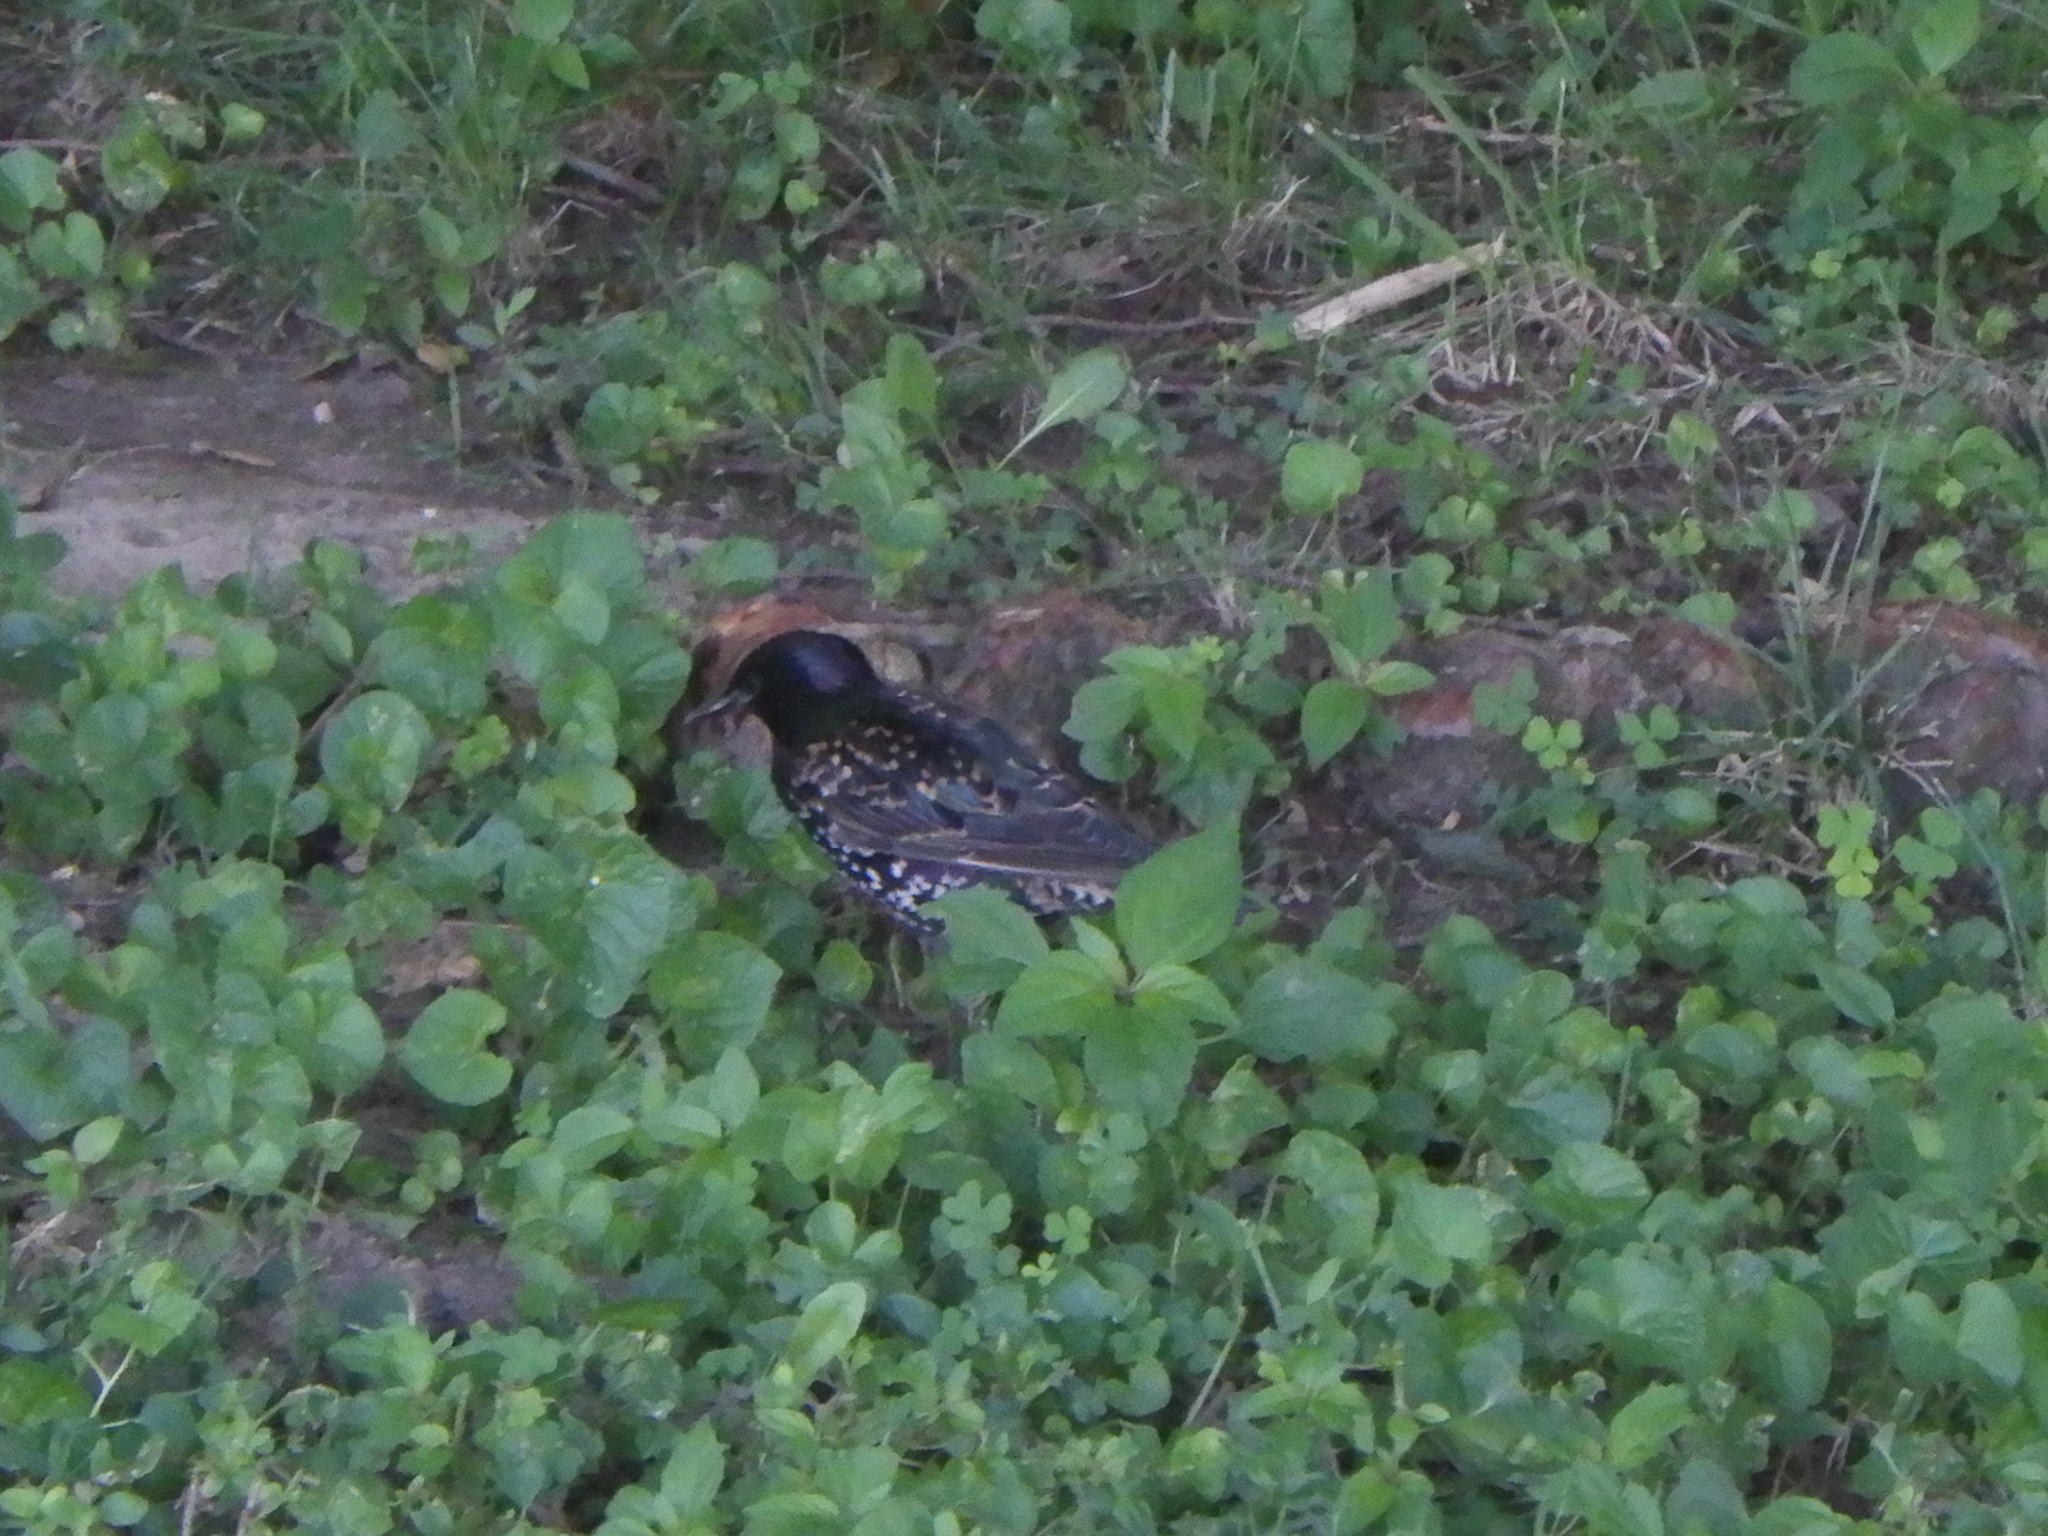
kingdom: Animalia
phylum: Chordata
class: Aves
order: Passeriformes
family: Sturnidae
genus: Sturnus
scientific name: Sturnus vulgaris
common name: Common starling
